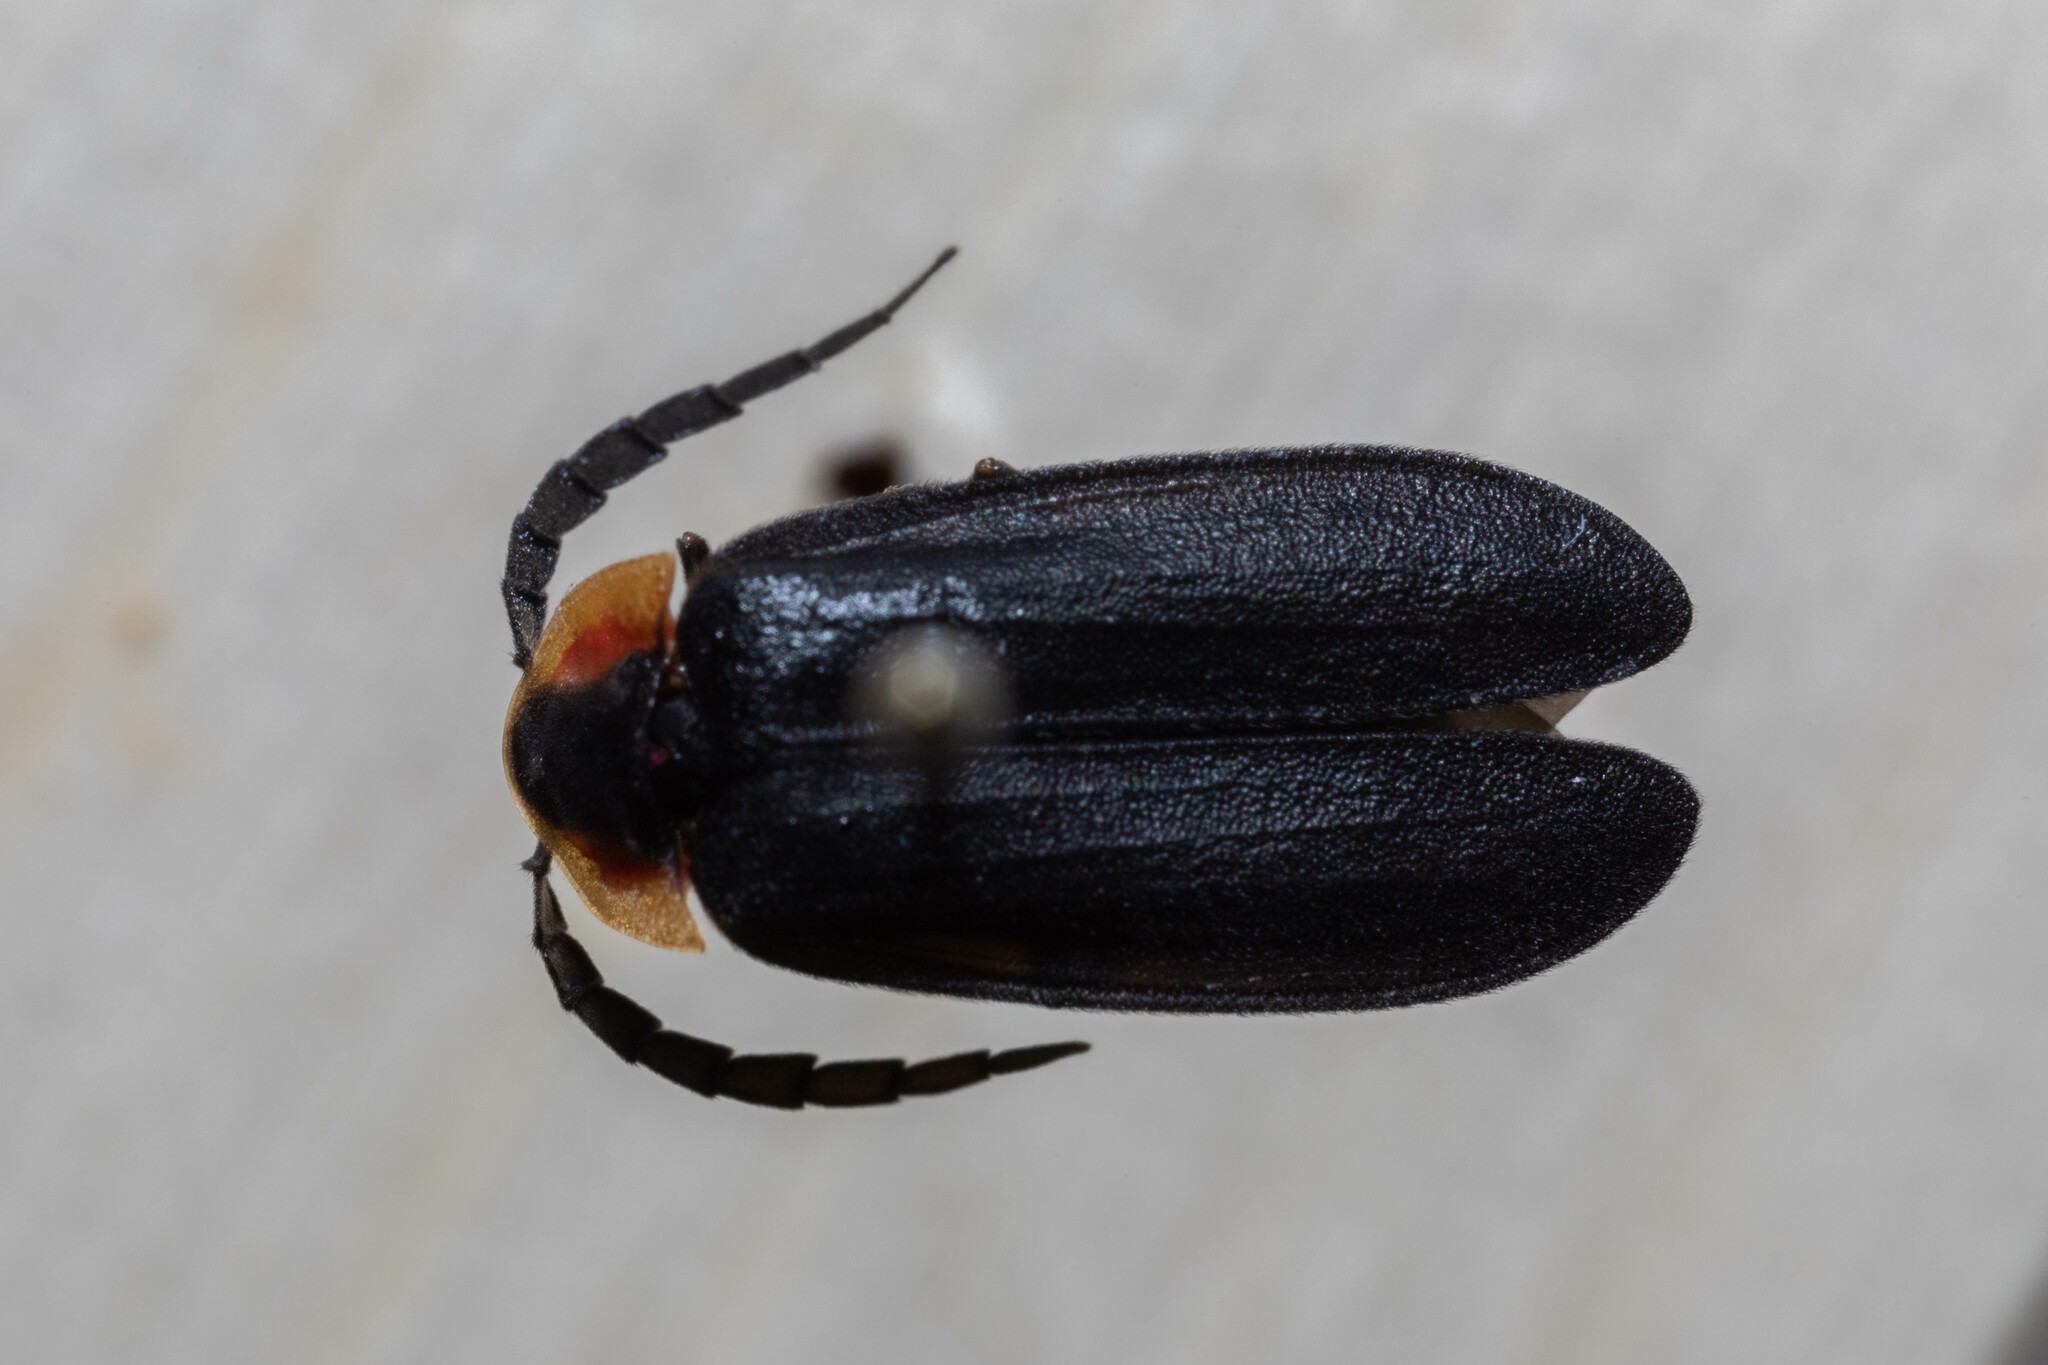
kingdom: Animalia
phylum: Arthropoda
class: Insecta
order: Coleoptera
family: Lampyridae
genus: Lucidota
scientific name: Lucidota atra
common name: Black firefly
